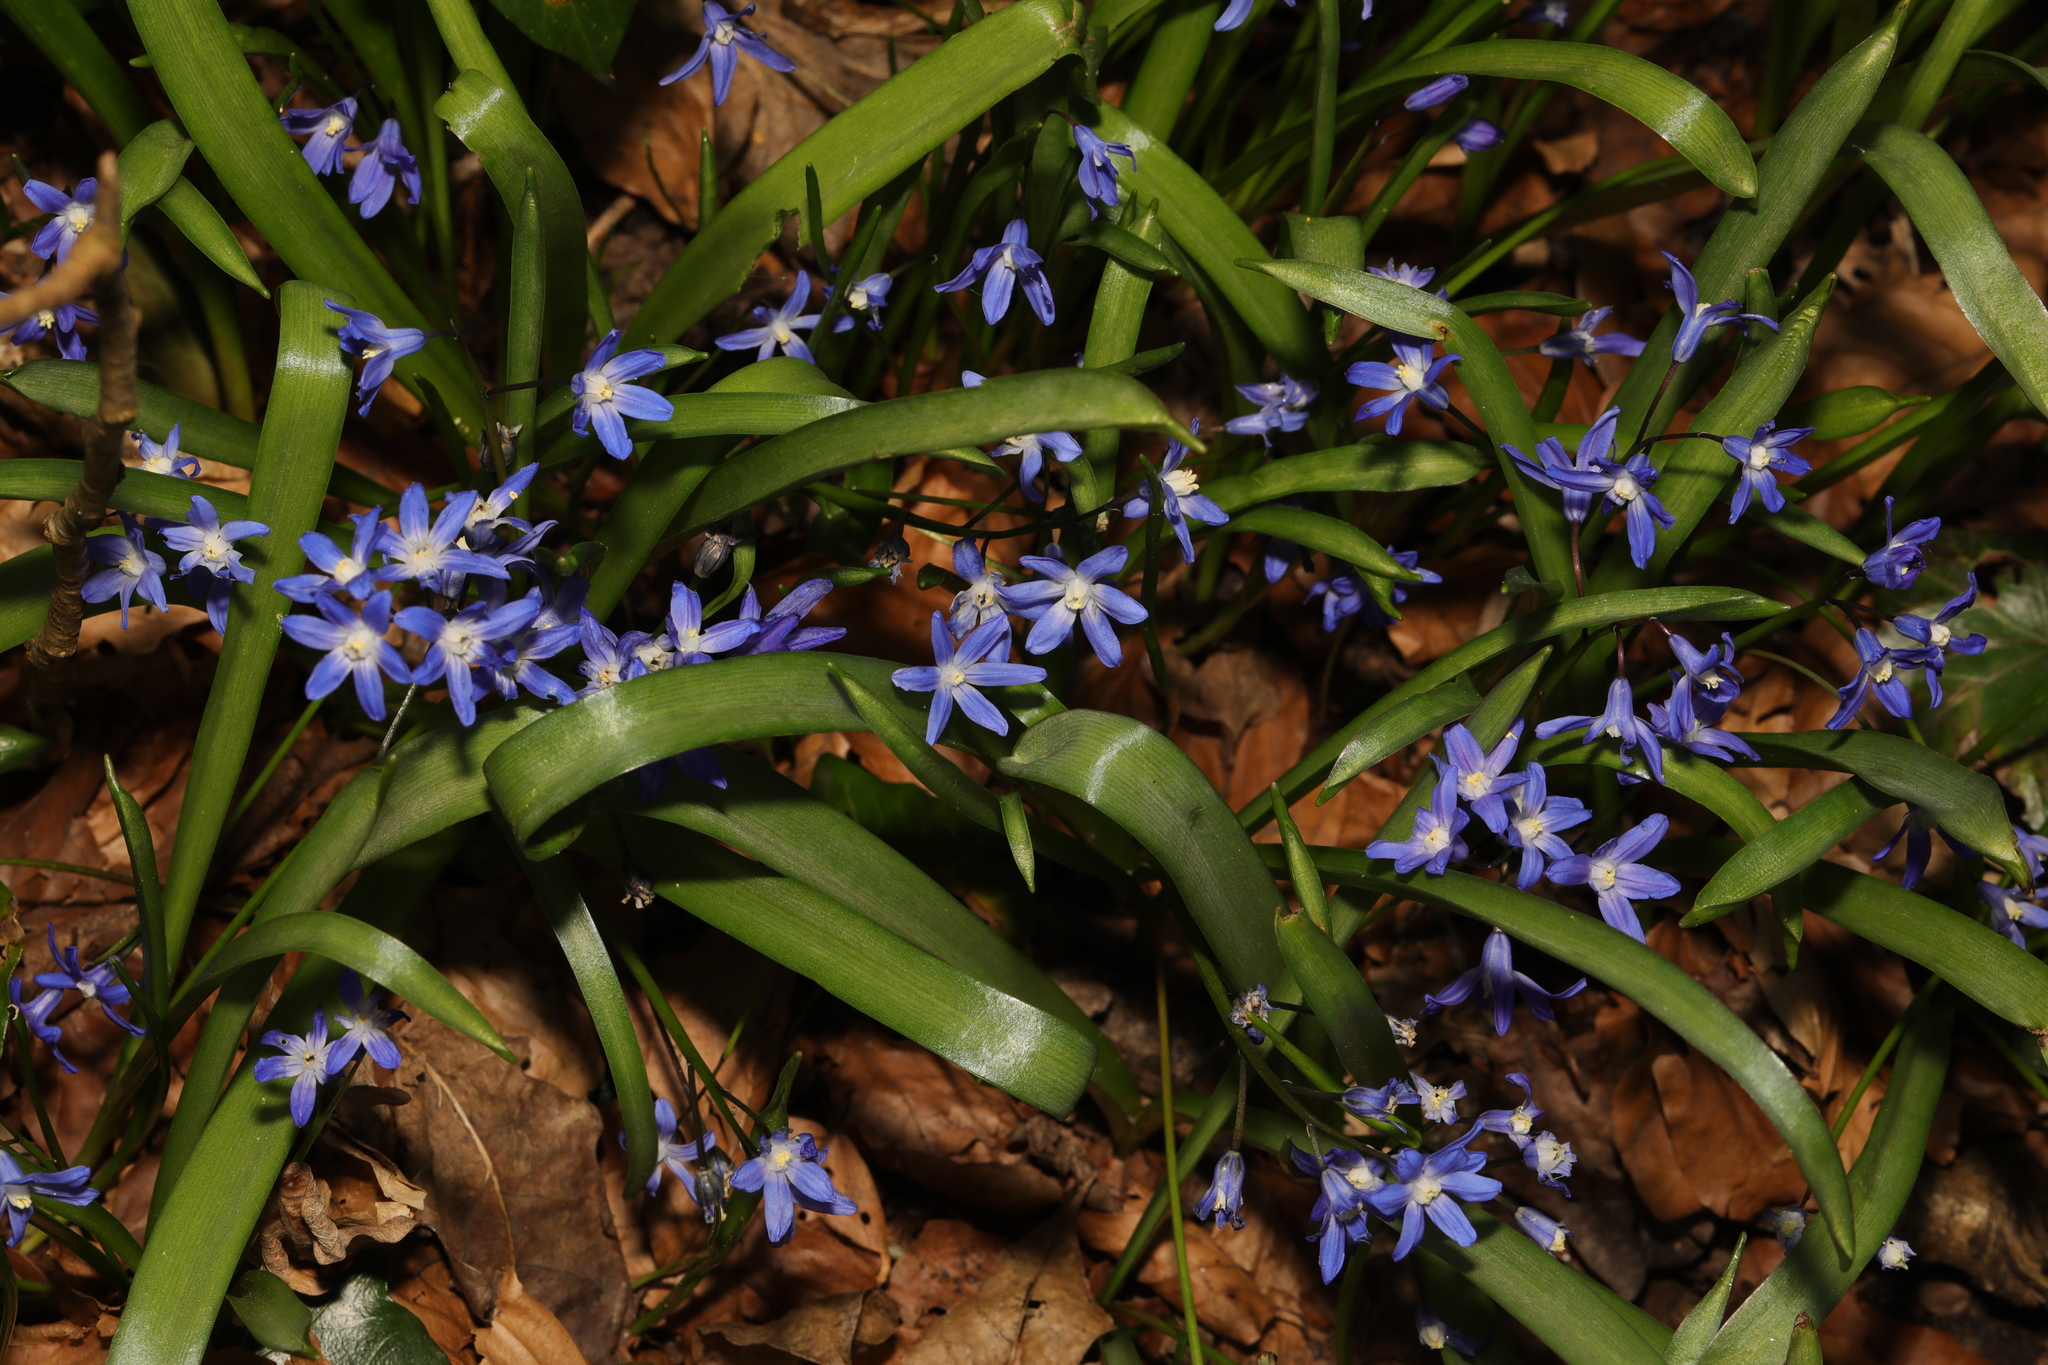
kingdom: Plantae
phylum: Tracheophyta
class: Liliopsida
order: Asparagales
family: Asparagaceae
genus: Scilla
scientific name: Scilla forbesii
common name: Glory-of-the-snow
